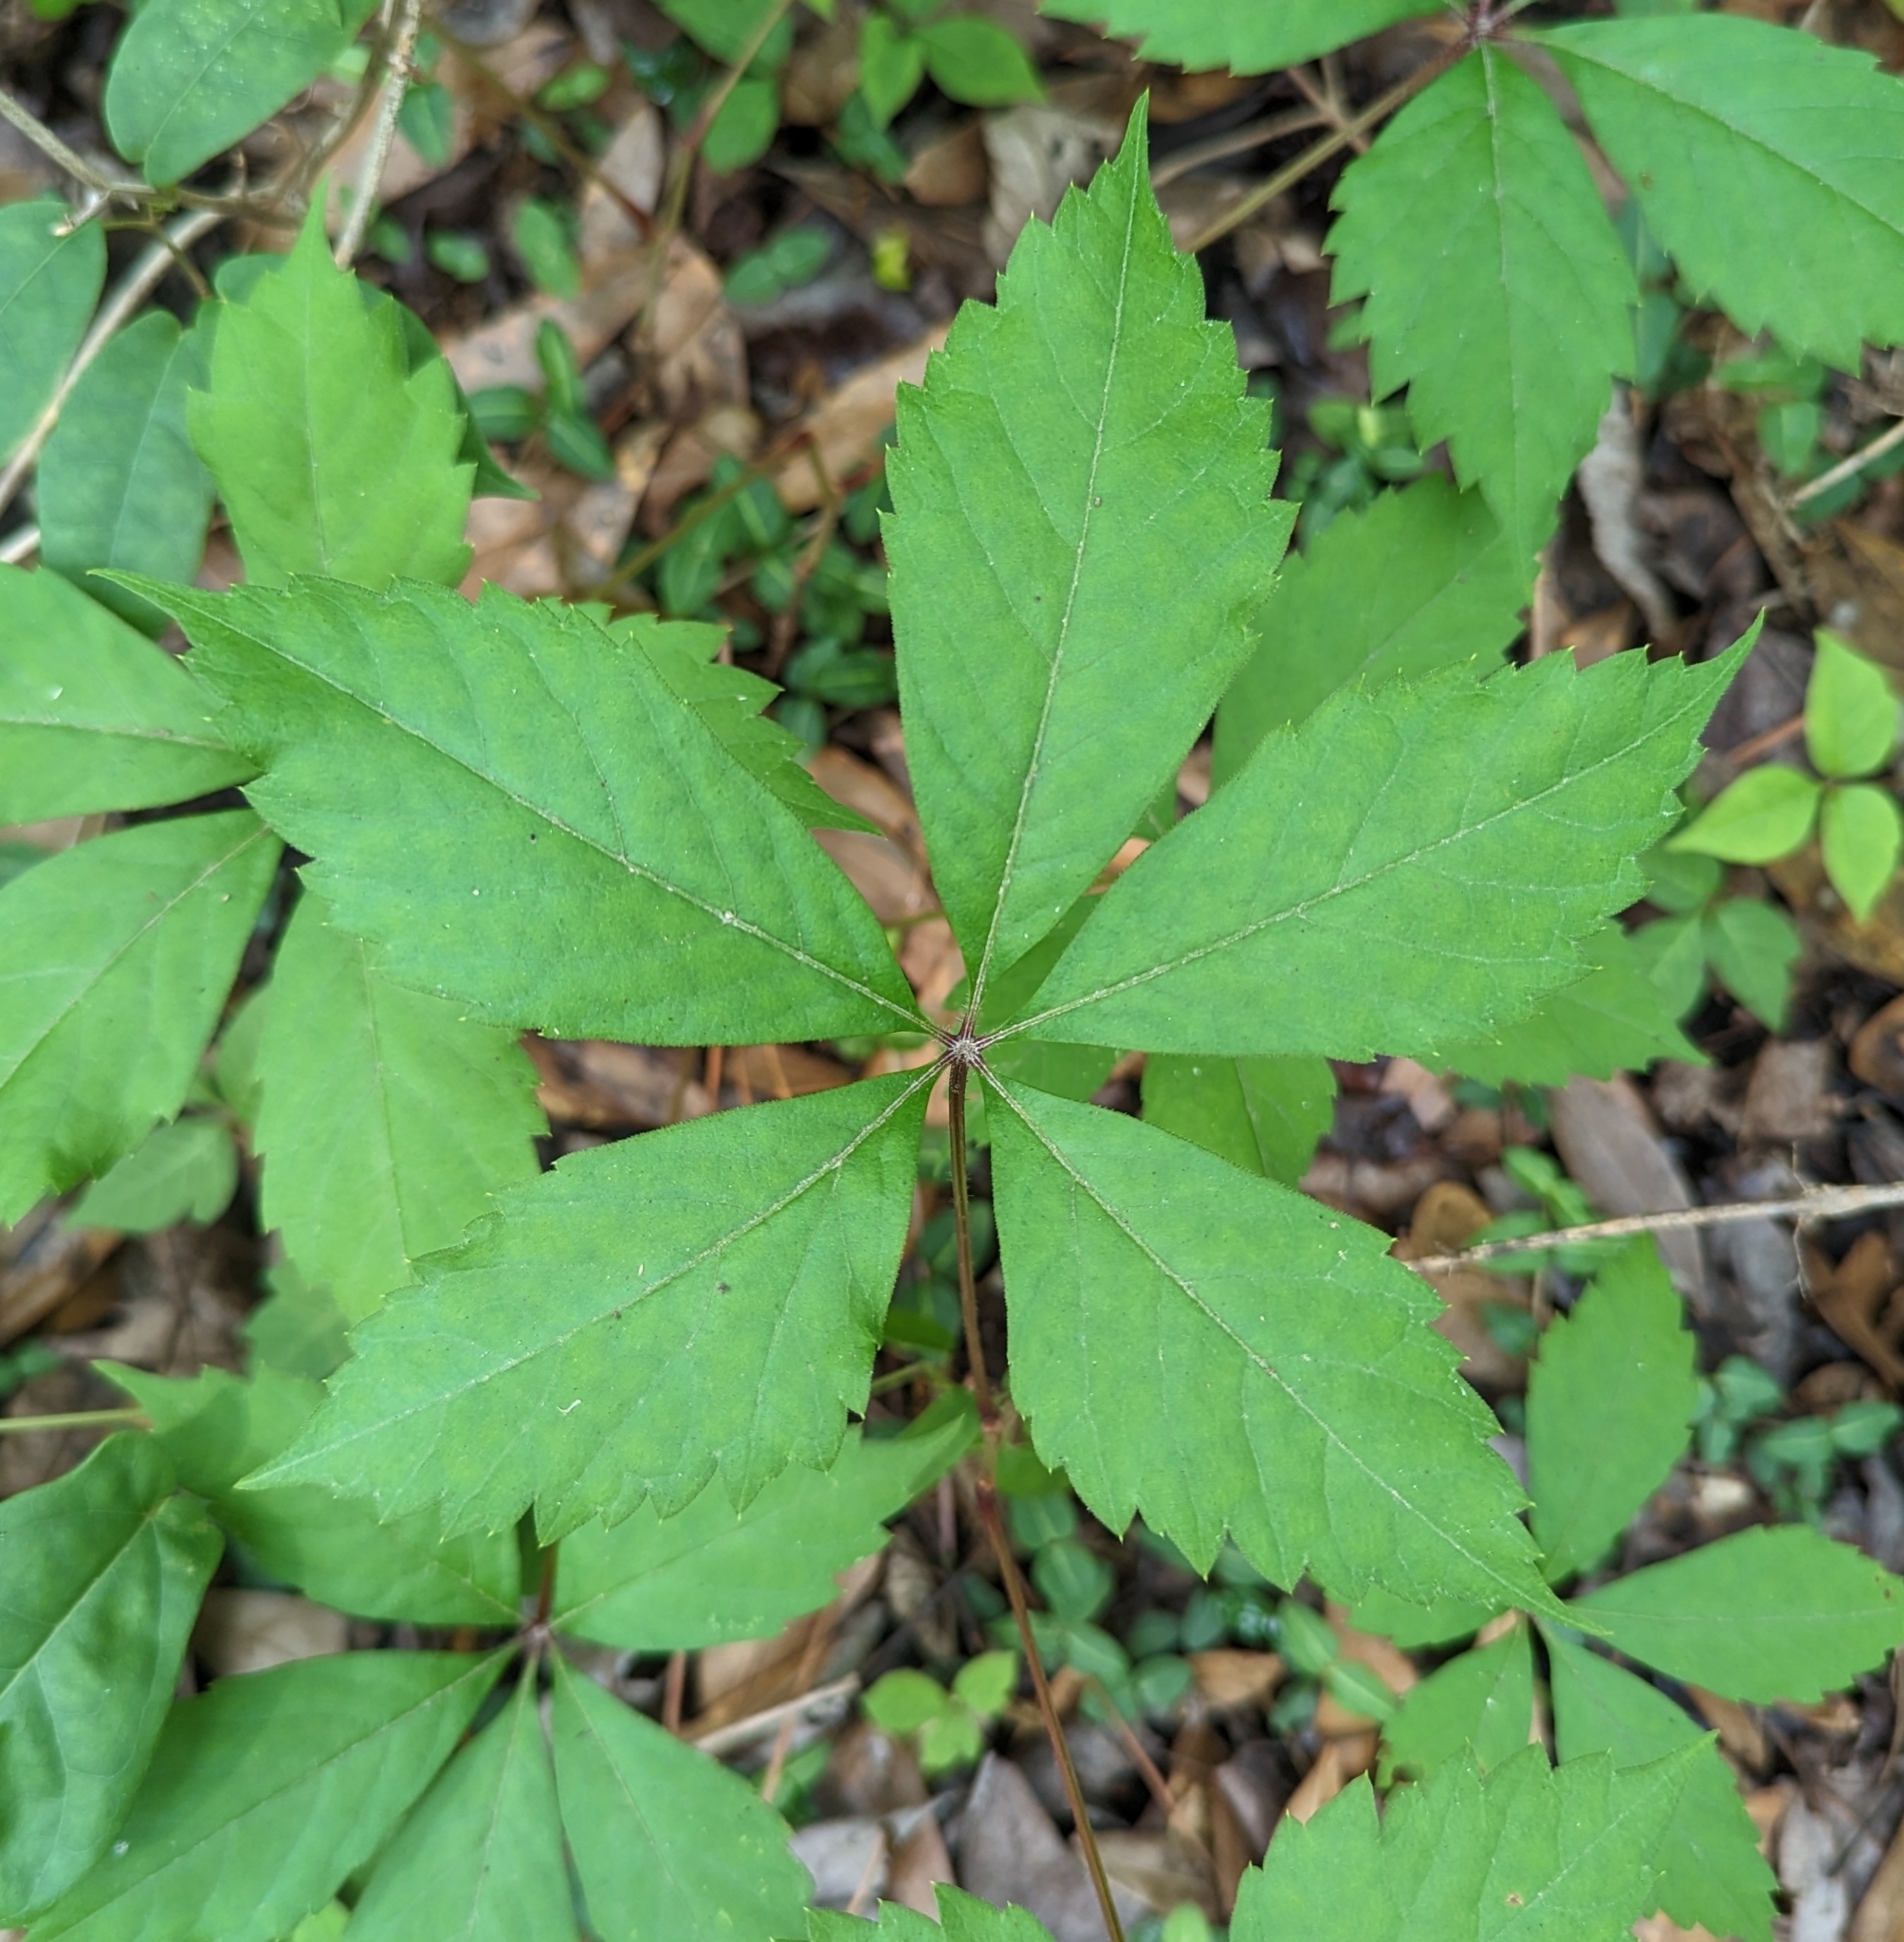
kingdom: Plantae
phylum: Tracheophyta
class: Magnoliopsida
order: Vitales
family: Vitaceae
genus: Parthenocissus
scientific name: Parthenocissus quinquefolia
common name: Virginia-creeper
